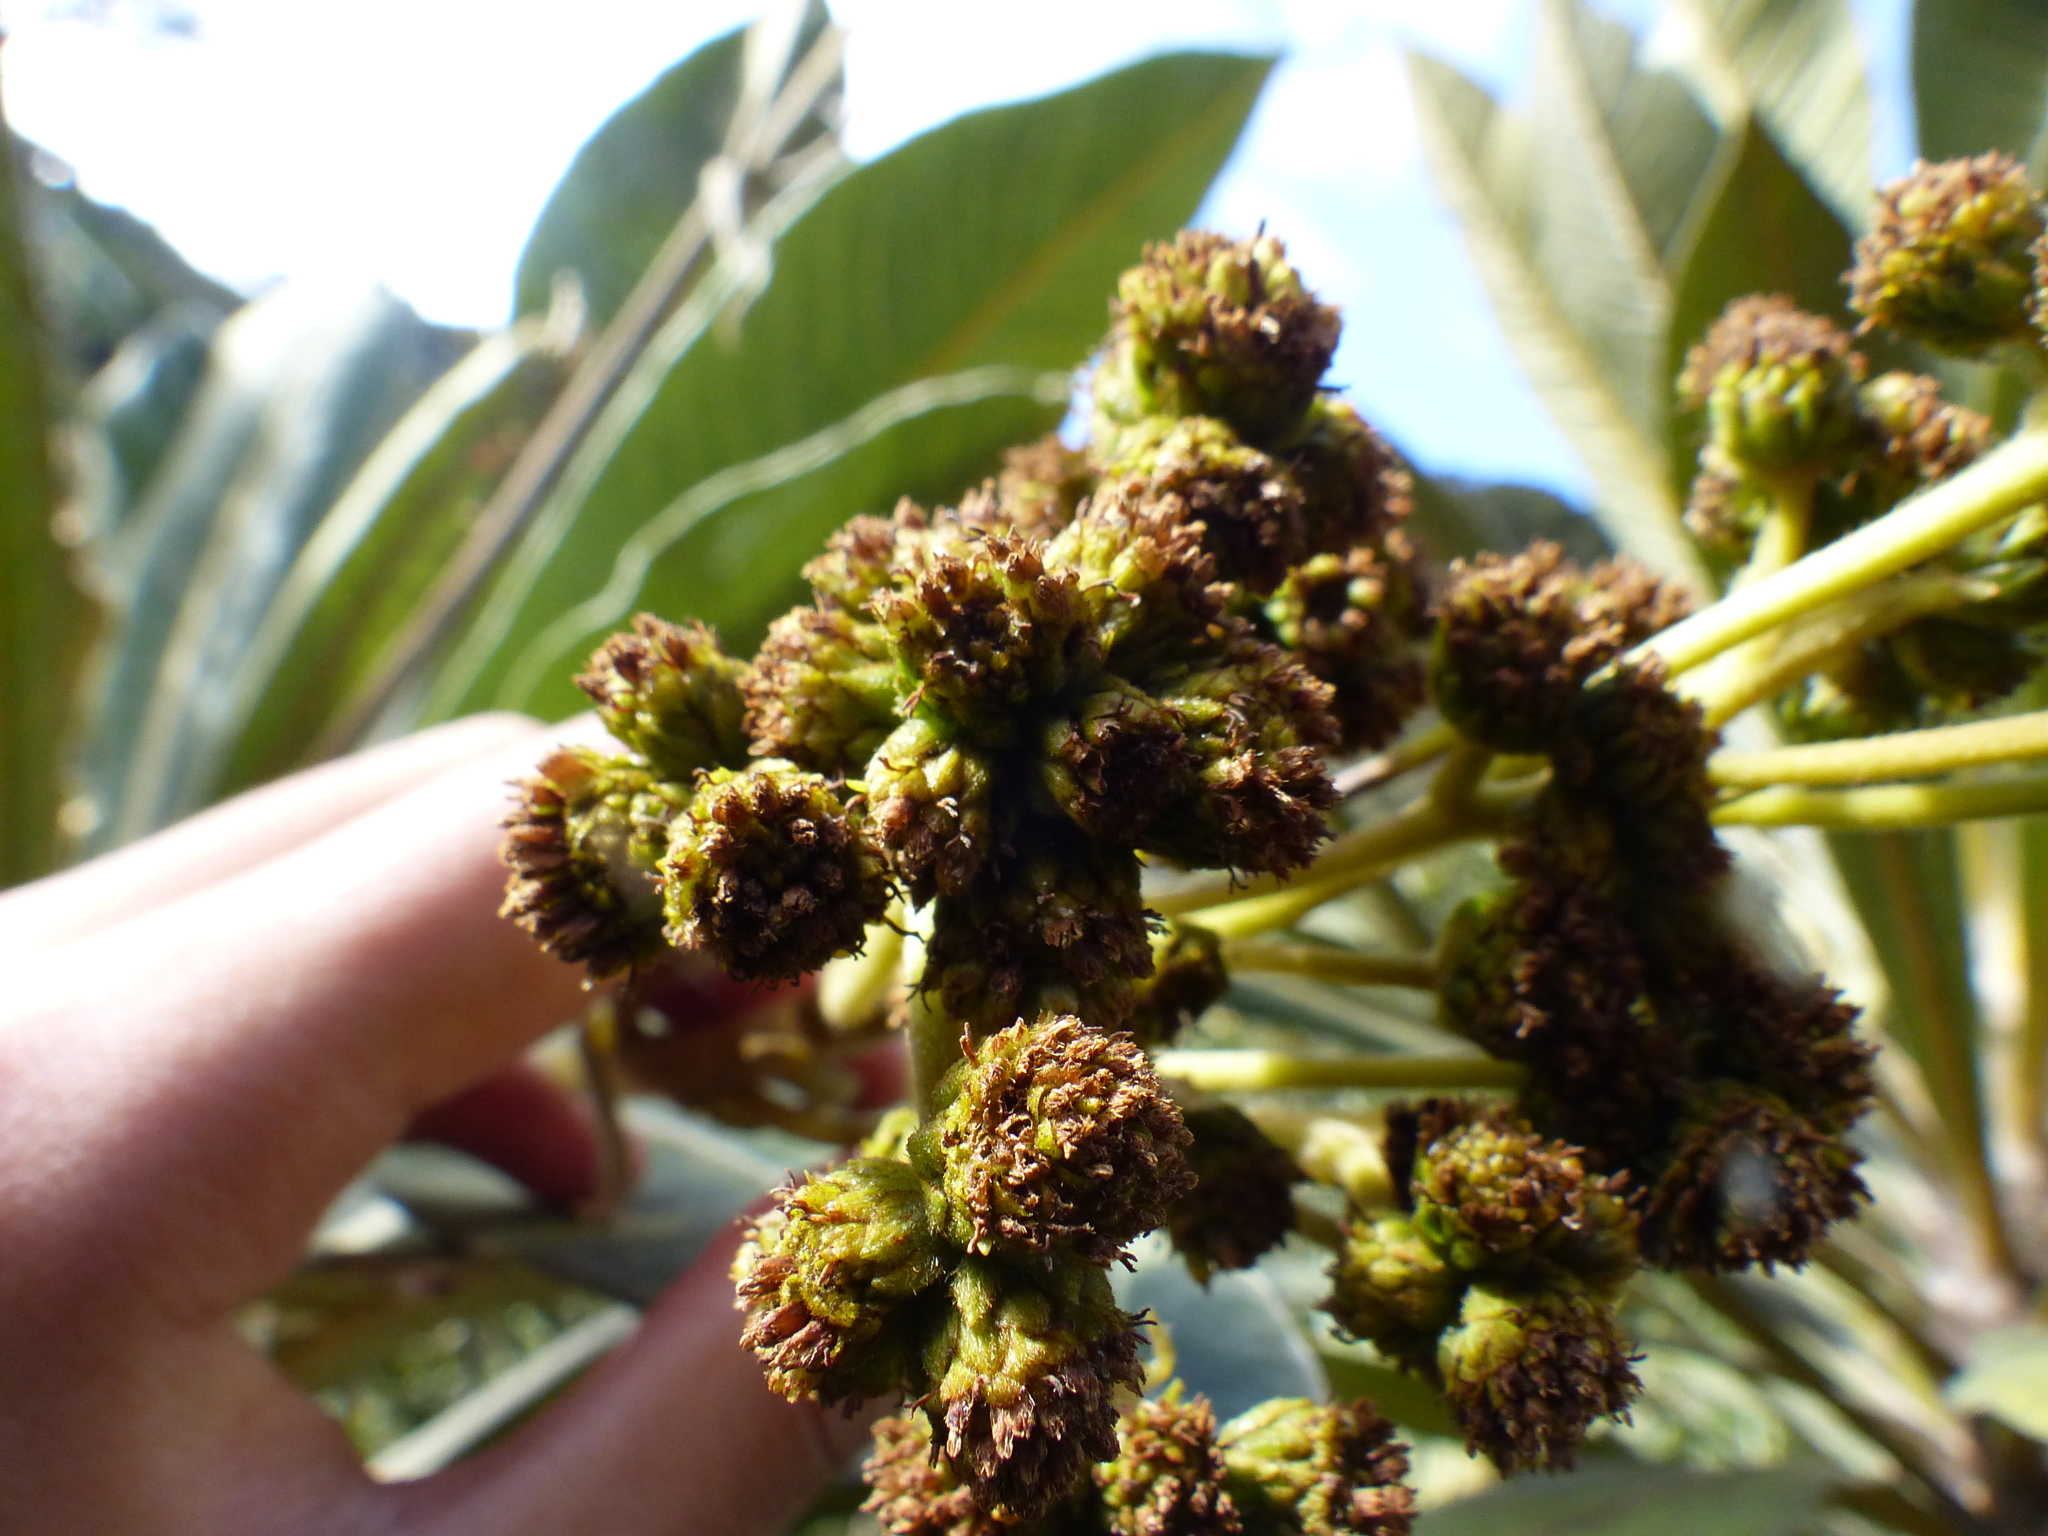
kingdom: Plantae
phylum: Tracheophyta
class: Magnoliopsida
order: Asterales
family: Asteraceae
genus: Espeletia
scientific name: Espeletia garciae
